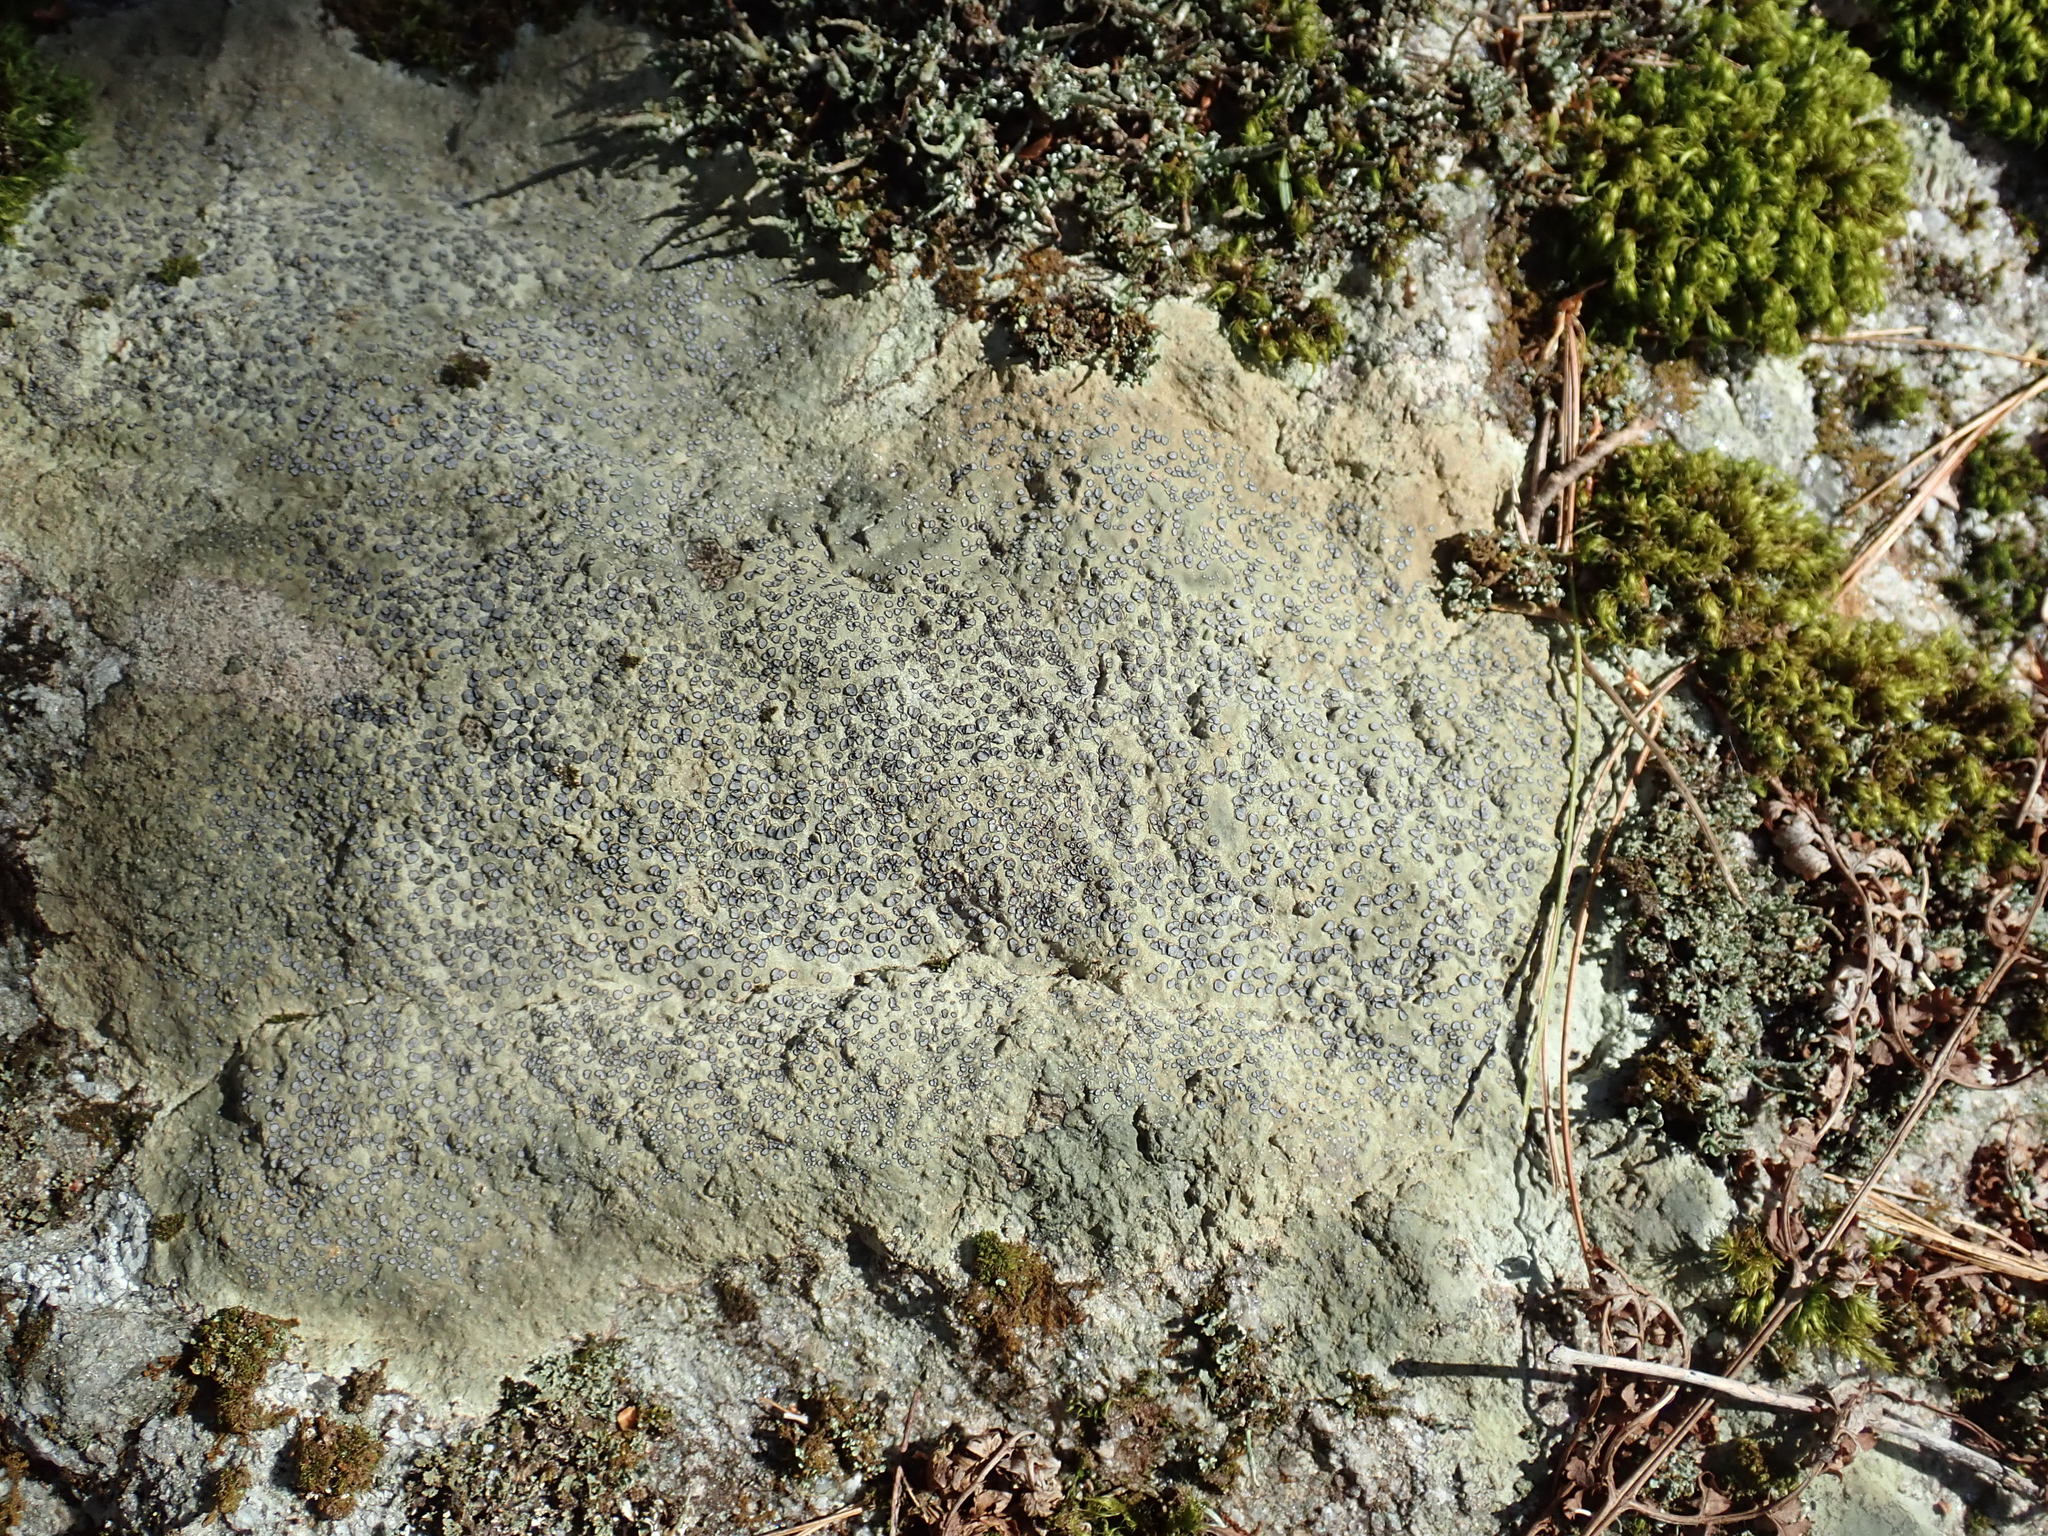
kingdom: Fungi
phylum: Ascomycota
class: Lecanoromycetes
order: Lecideales
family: Lecideaceae
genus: Porpidia
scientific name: Porpidia albocaerulescens
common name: Smokey-eyed boulder lichen
